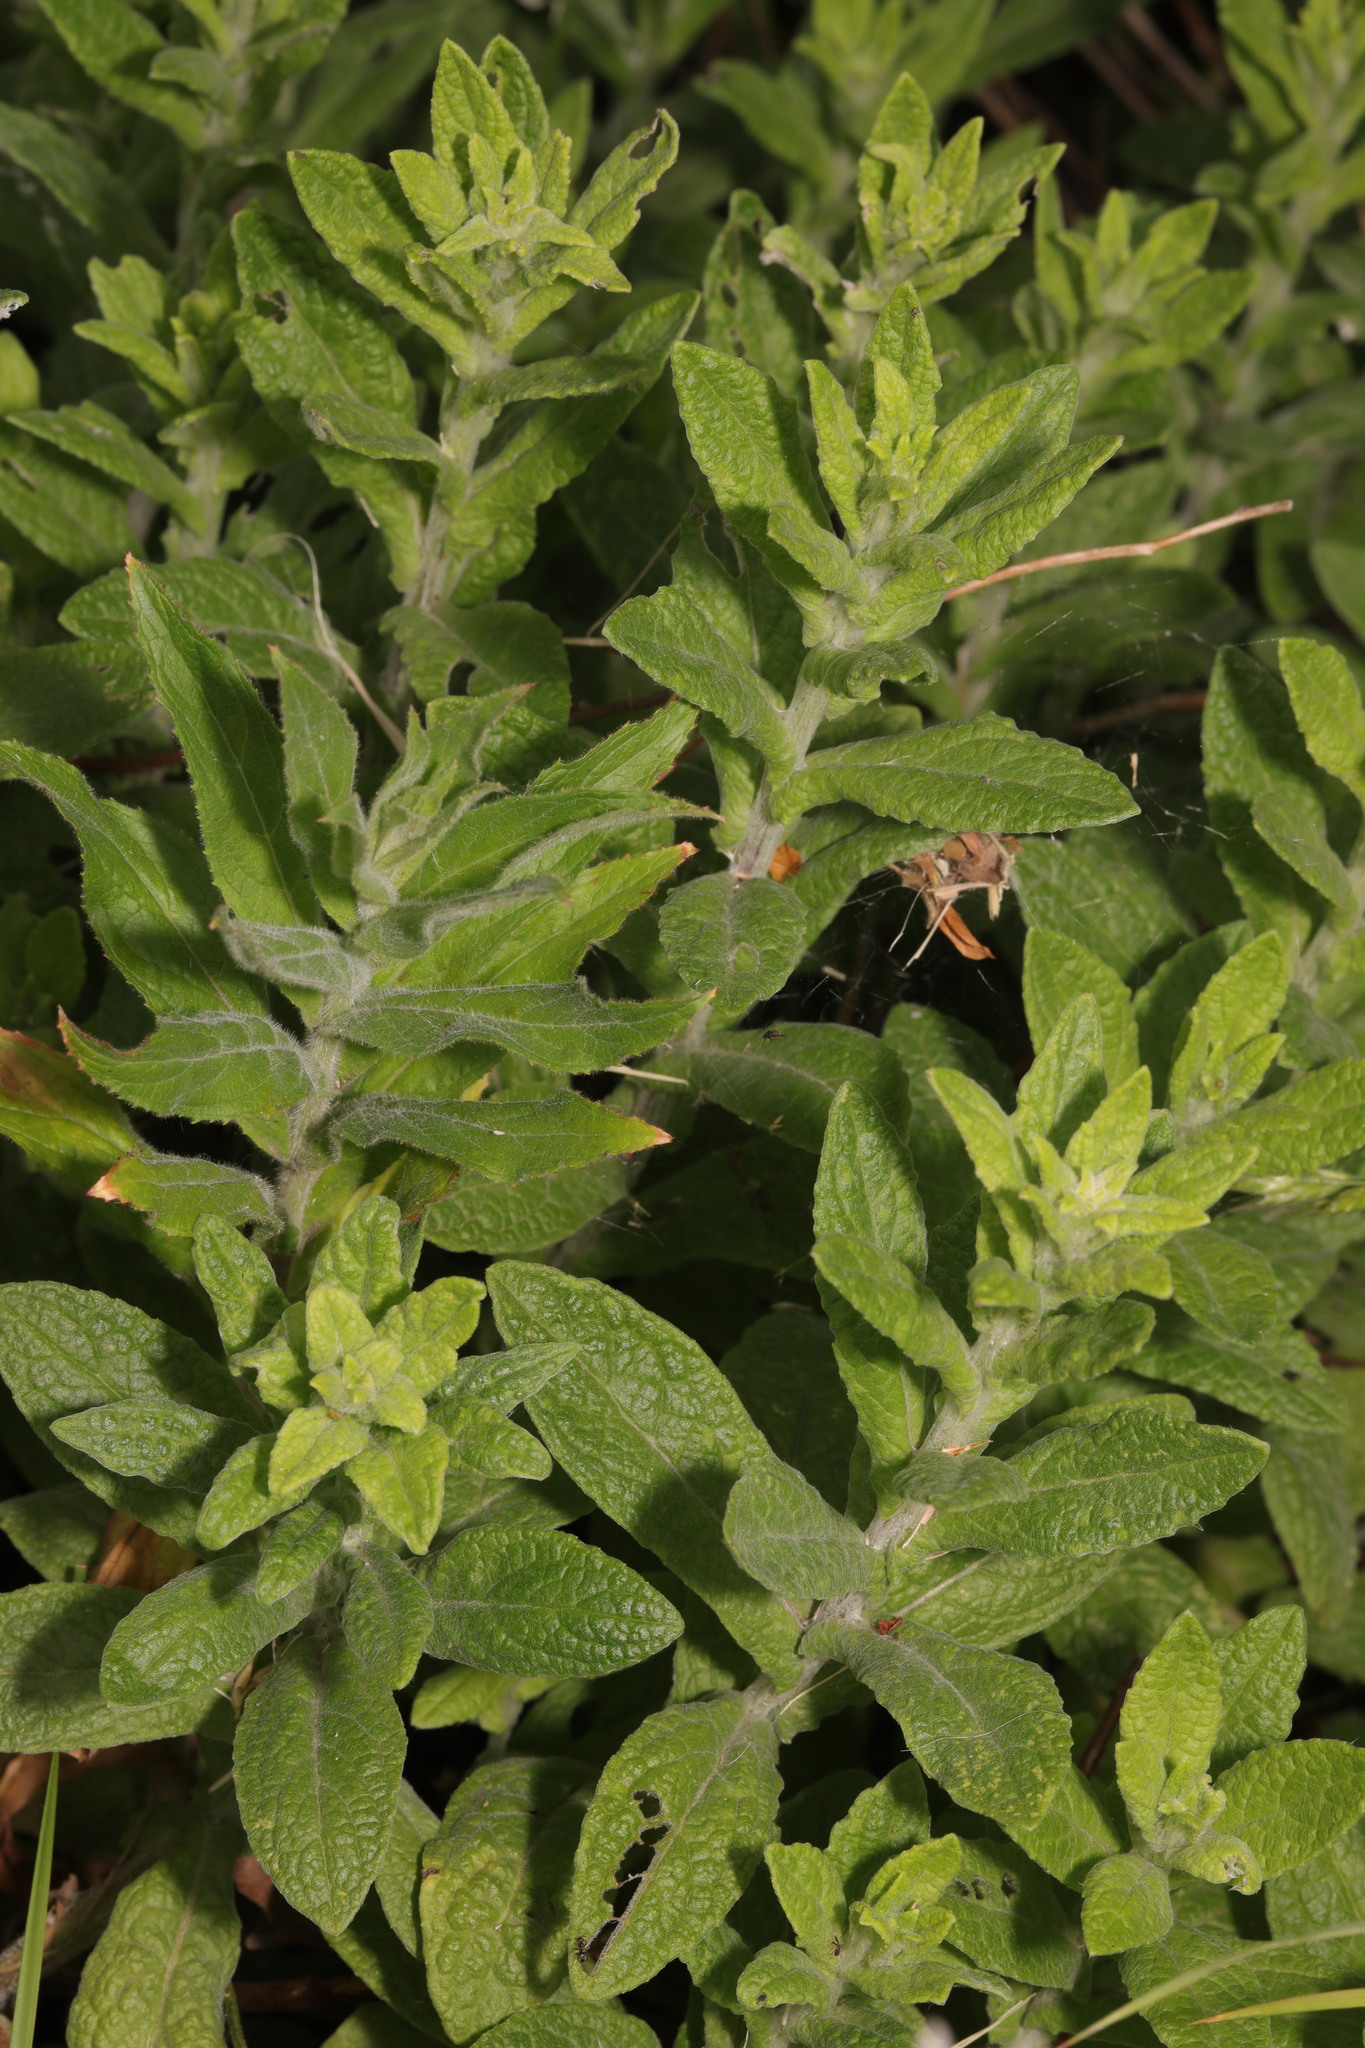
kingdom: Plantae
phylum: Tracheophyta
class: Magnoliopsida
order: Asterales
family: Asteraceae
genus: Pulicaria
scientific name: Pulicaria dysenterica
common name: Common fleabane
